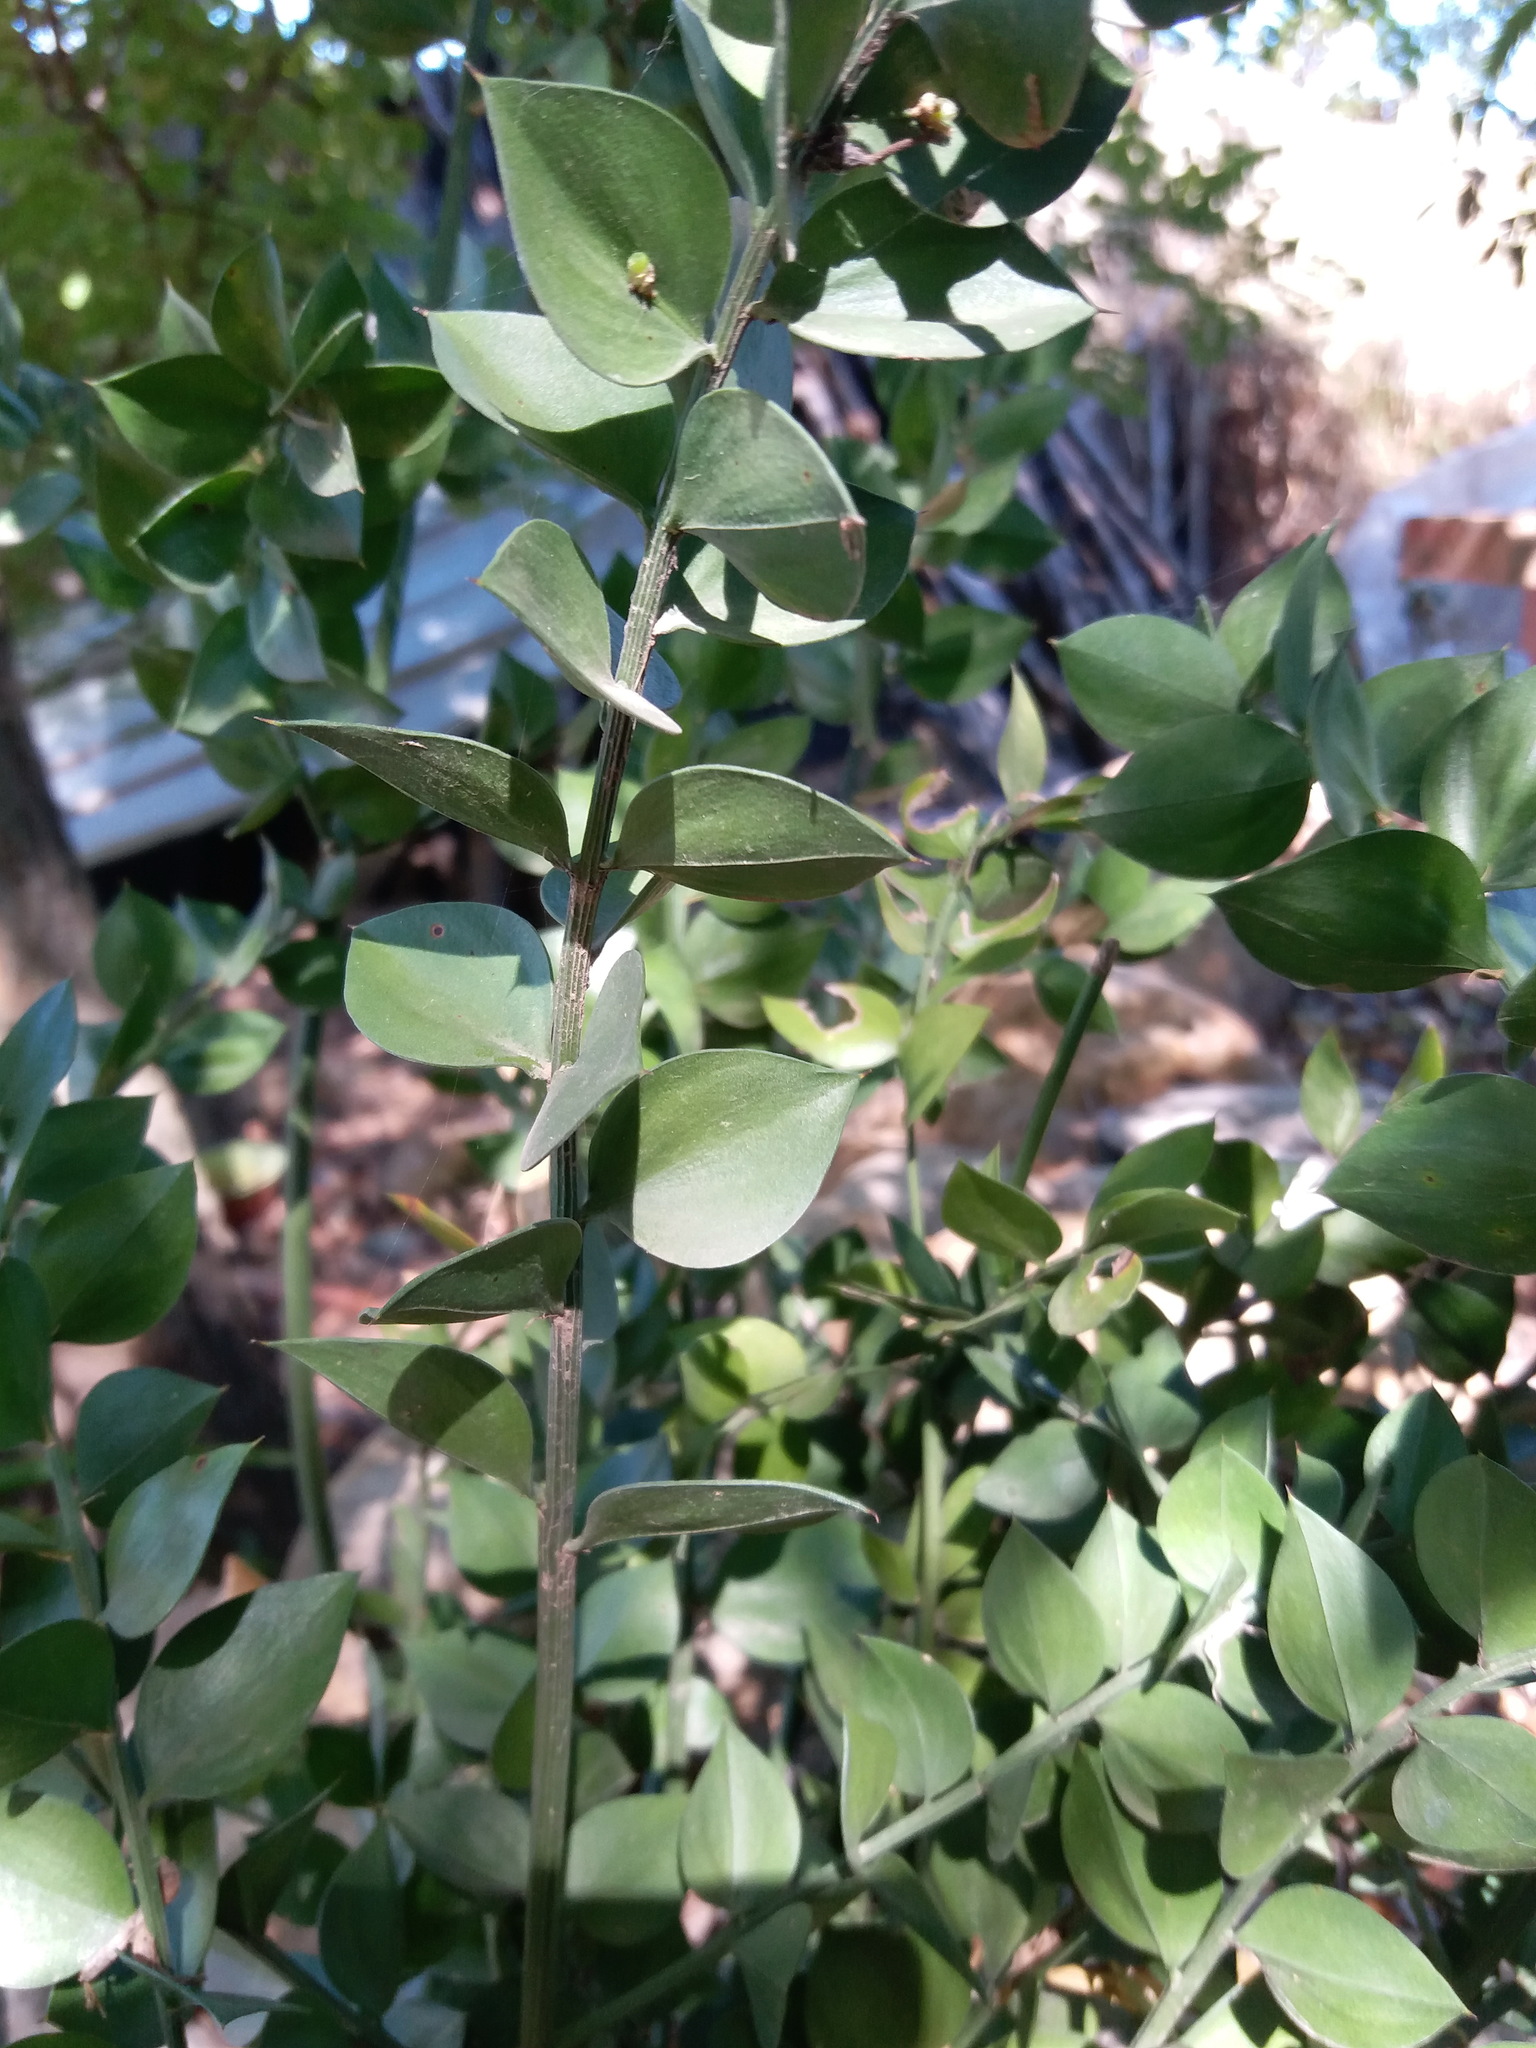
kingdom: Plantae
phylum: Tracheophyta
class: Liliopsida
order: Asparagales
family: Asparagaceae
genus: Ruscus
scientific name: Ruscus aculeatus
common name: Butcher's-broom
